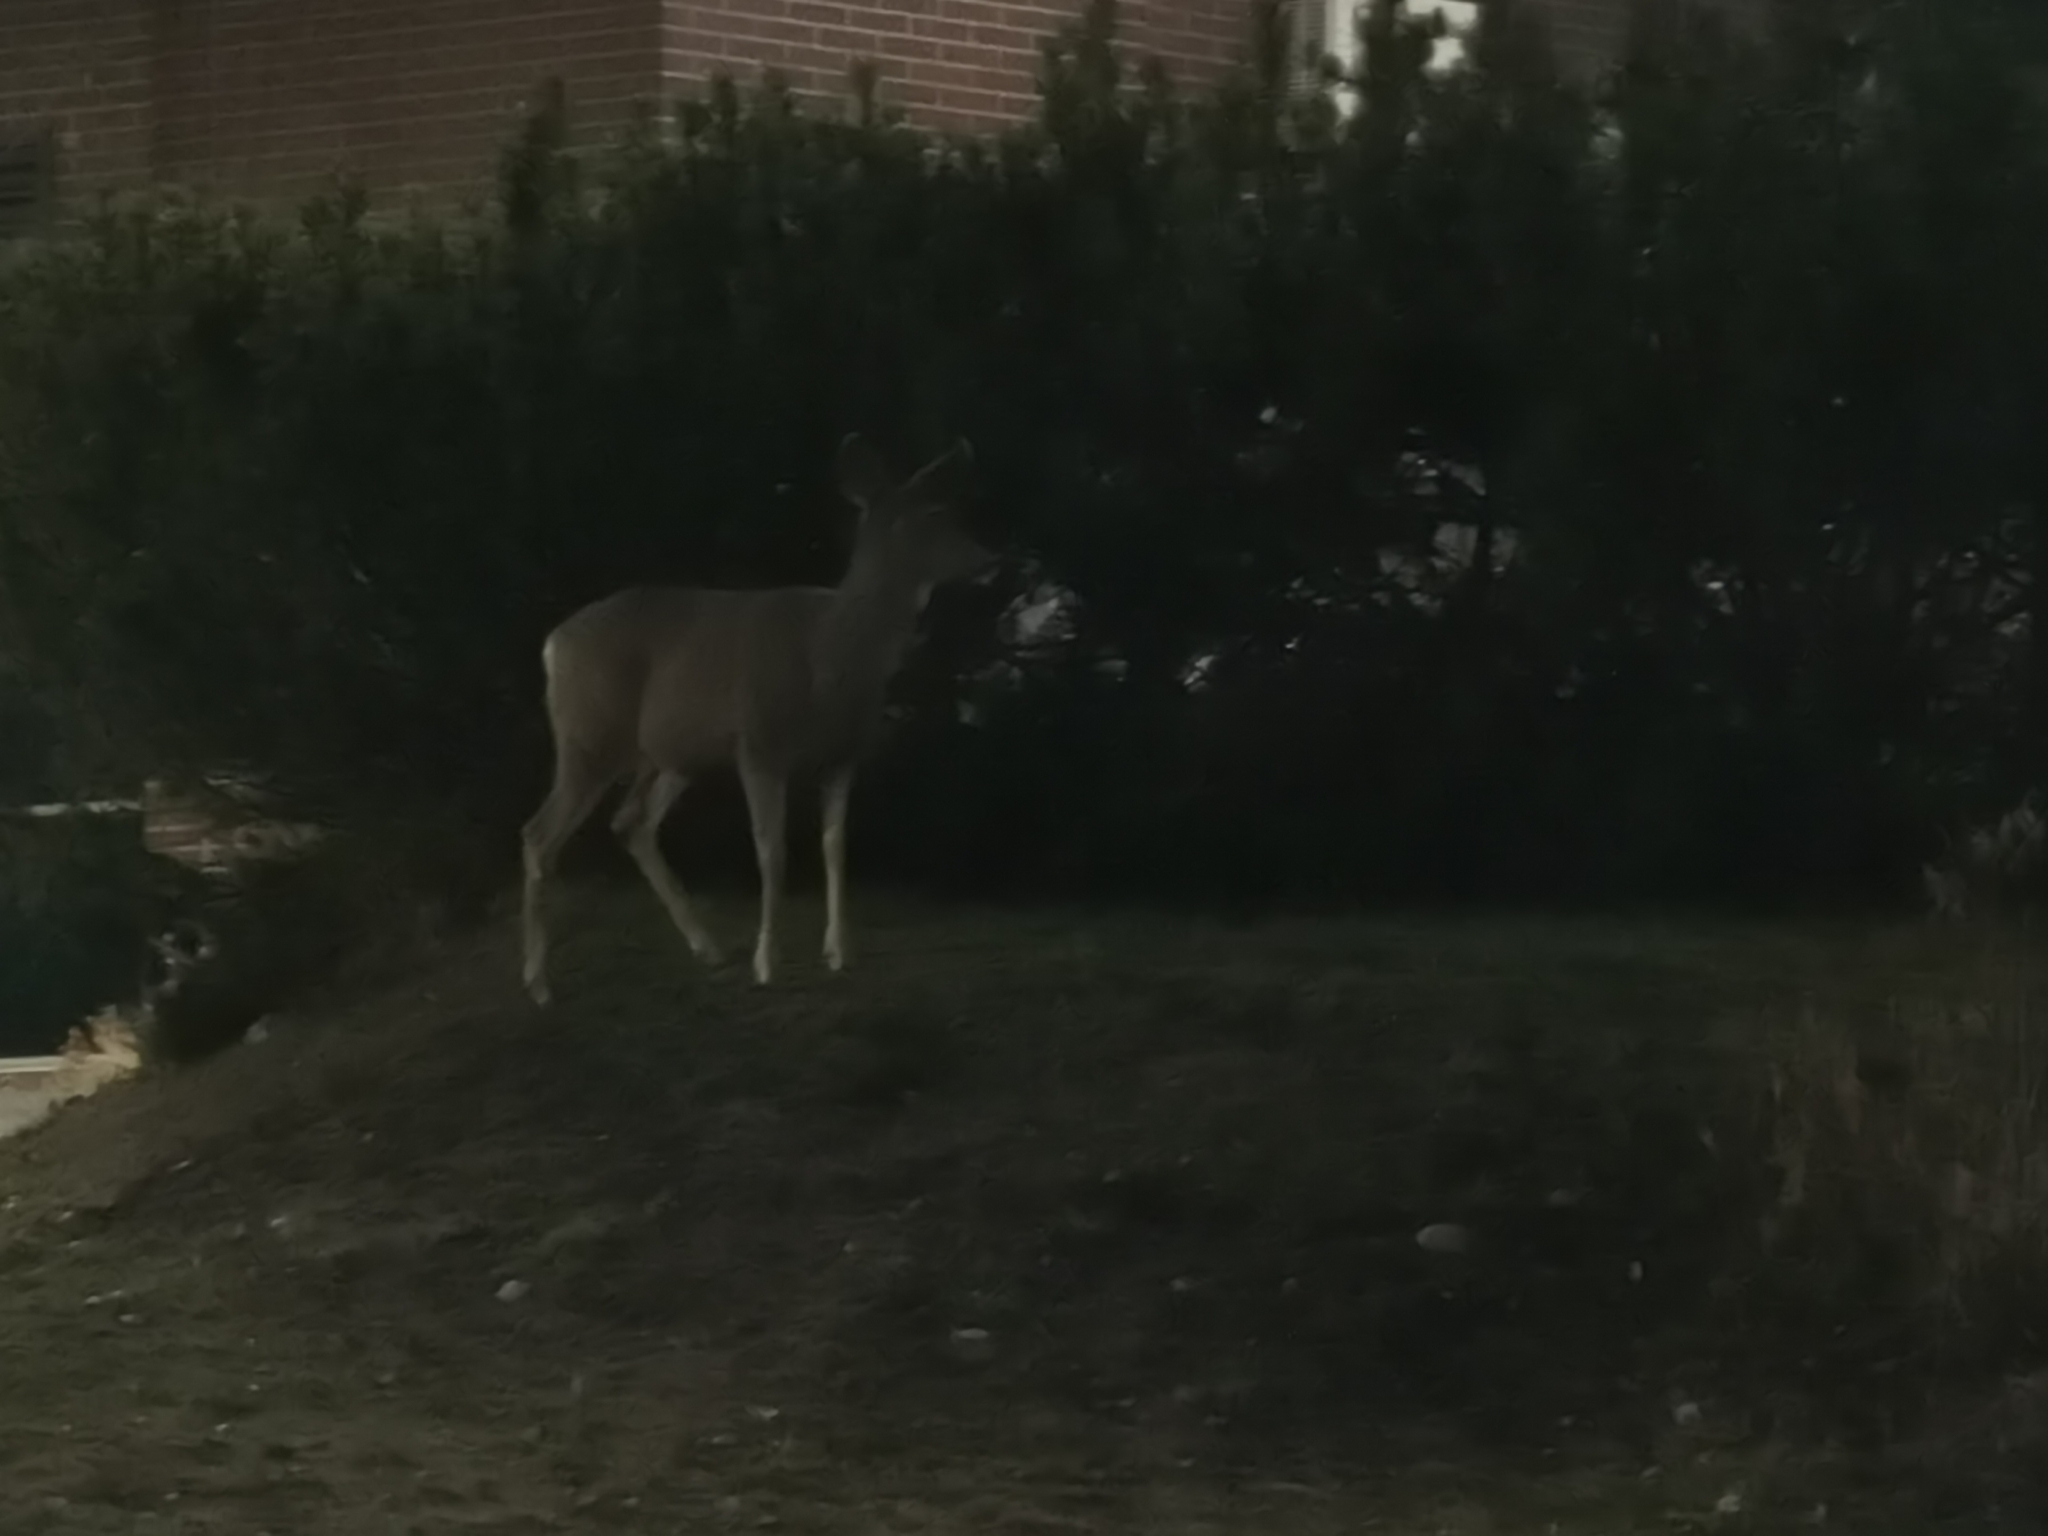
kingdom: Animalia
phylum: Chordata
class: Mammalia
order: Artiodactyla
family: Cervidae
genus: Odocoileus
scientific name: Odocoileus hemionus
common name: Mule deer
